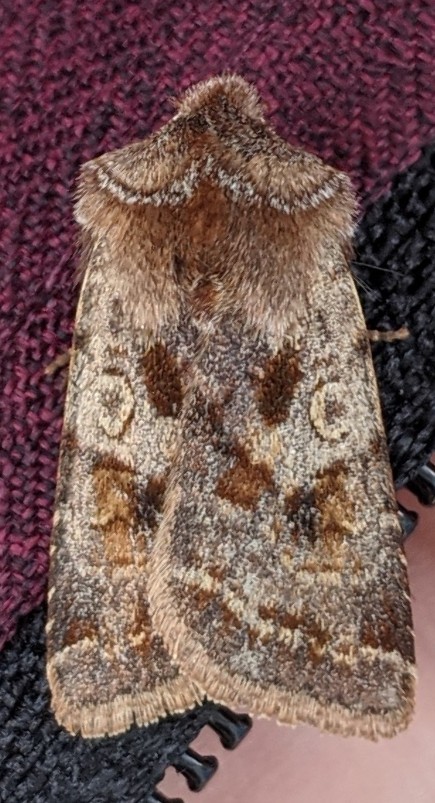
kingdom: Animalia
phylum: Arthropoda
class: Insecta
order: Lepidoptera
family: Noctuidae
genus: Cerastis
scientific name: Cerastis salicarum
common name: Willow dart
